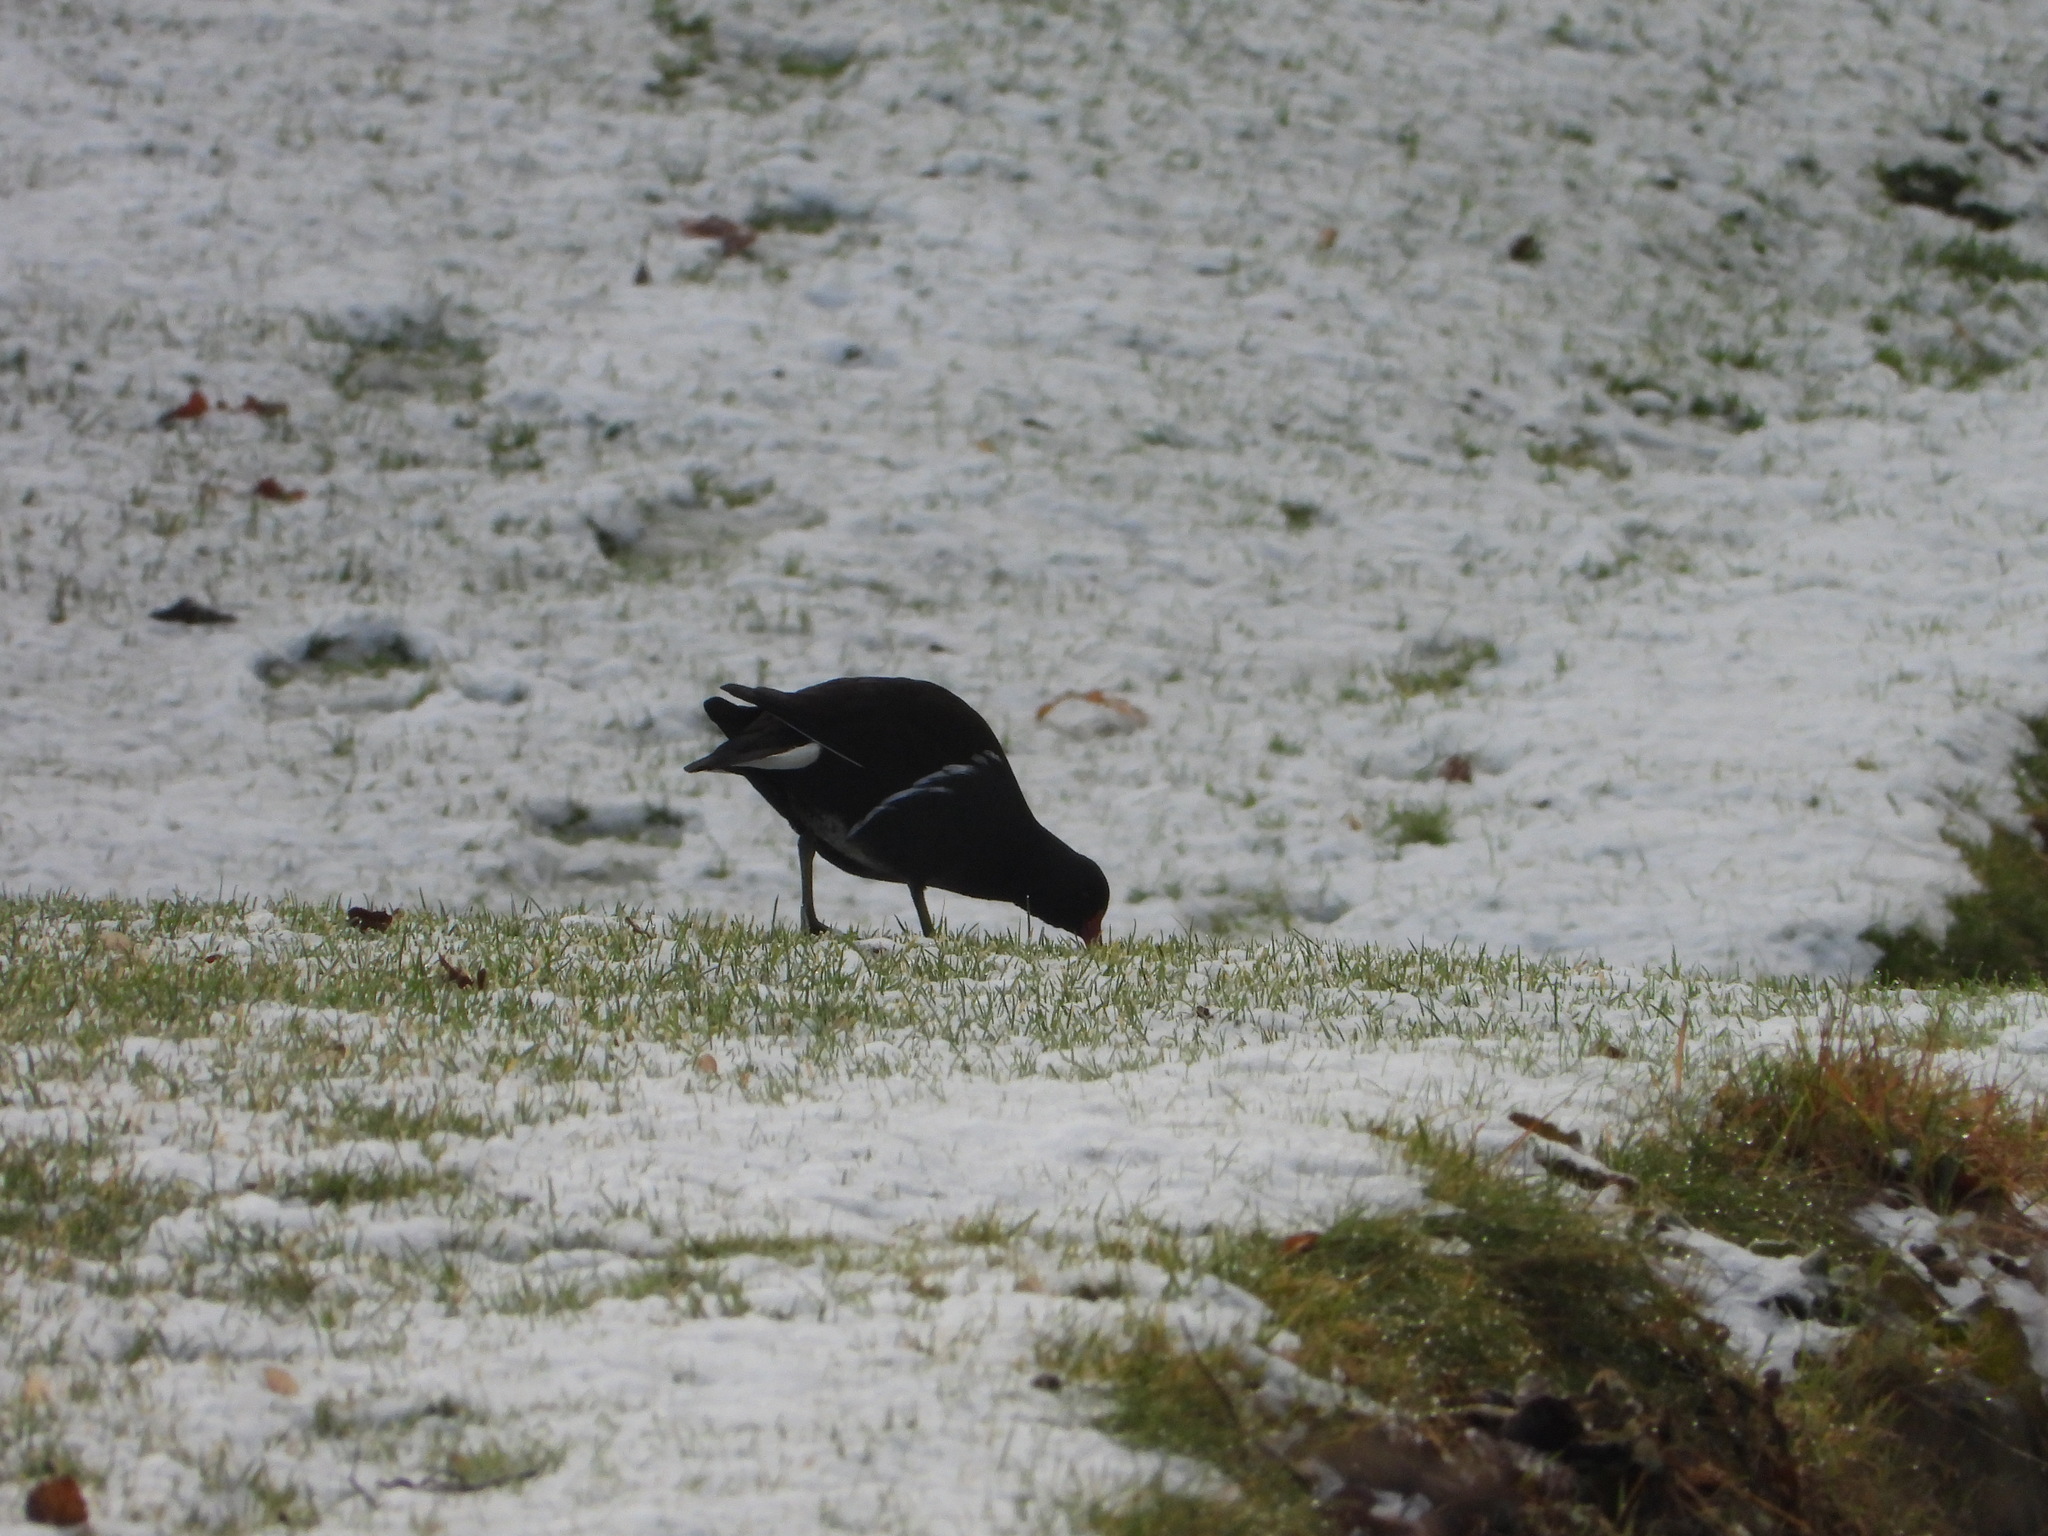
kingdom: Animalia
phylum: Chordata
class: Aves
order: Gruiformes
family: Rallidae
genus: Gallinula
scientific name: Gallinula chloropus
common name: Common moorhen
